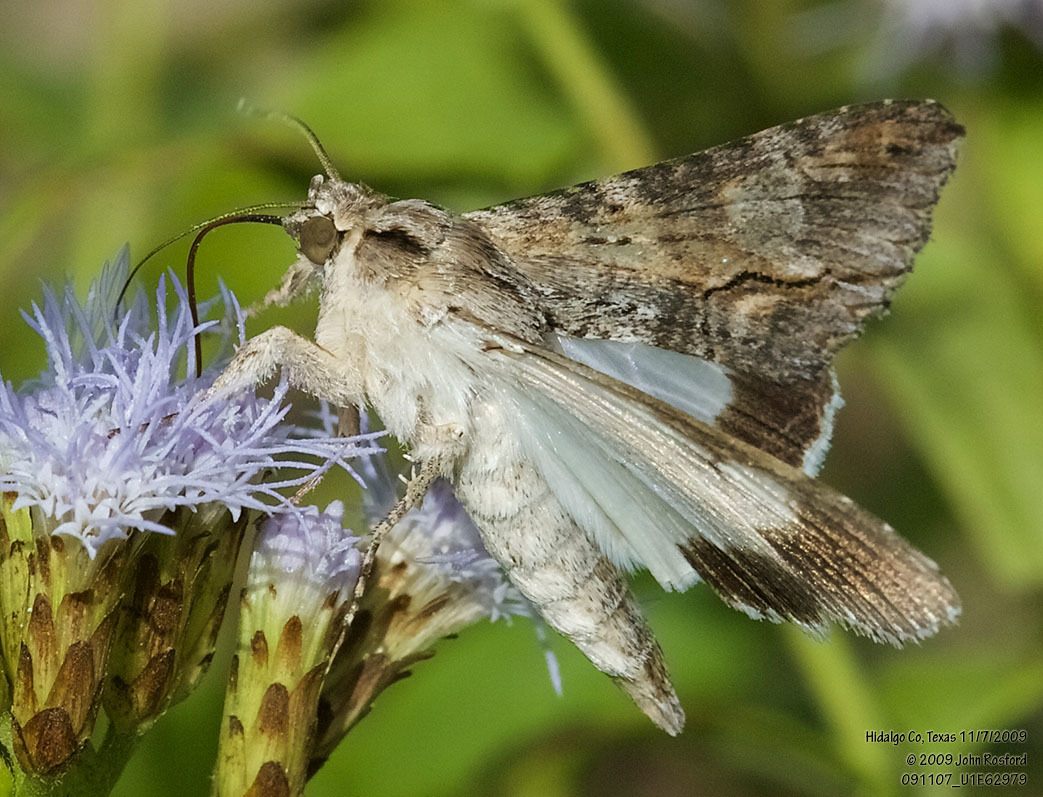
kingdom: Animalia
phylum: Arthropoda
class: Insecta
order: Lepidoptera
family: Erebidae
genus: Melipotis
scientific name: Melipotis acontioides
